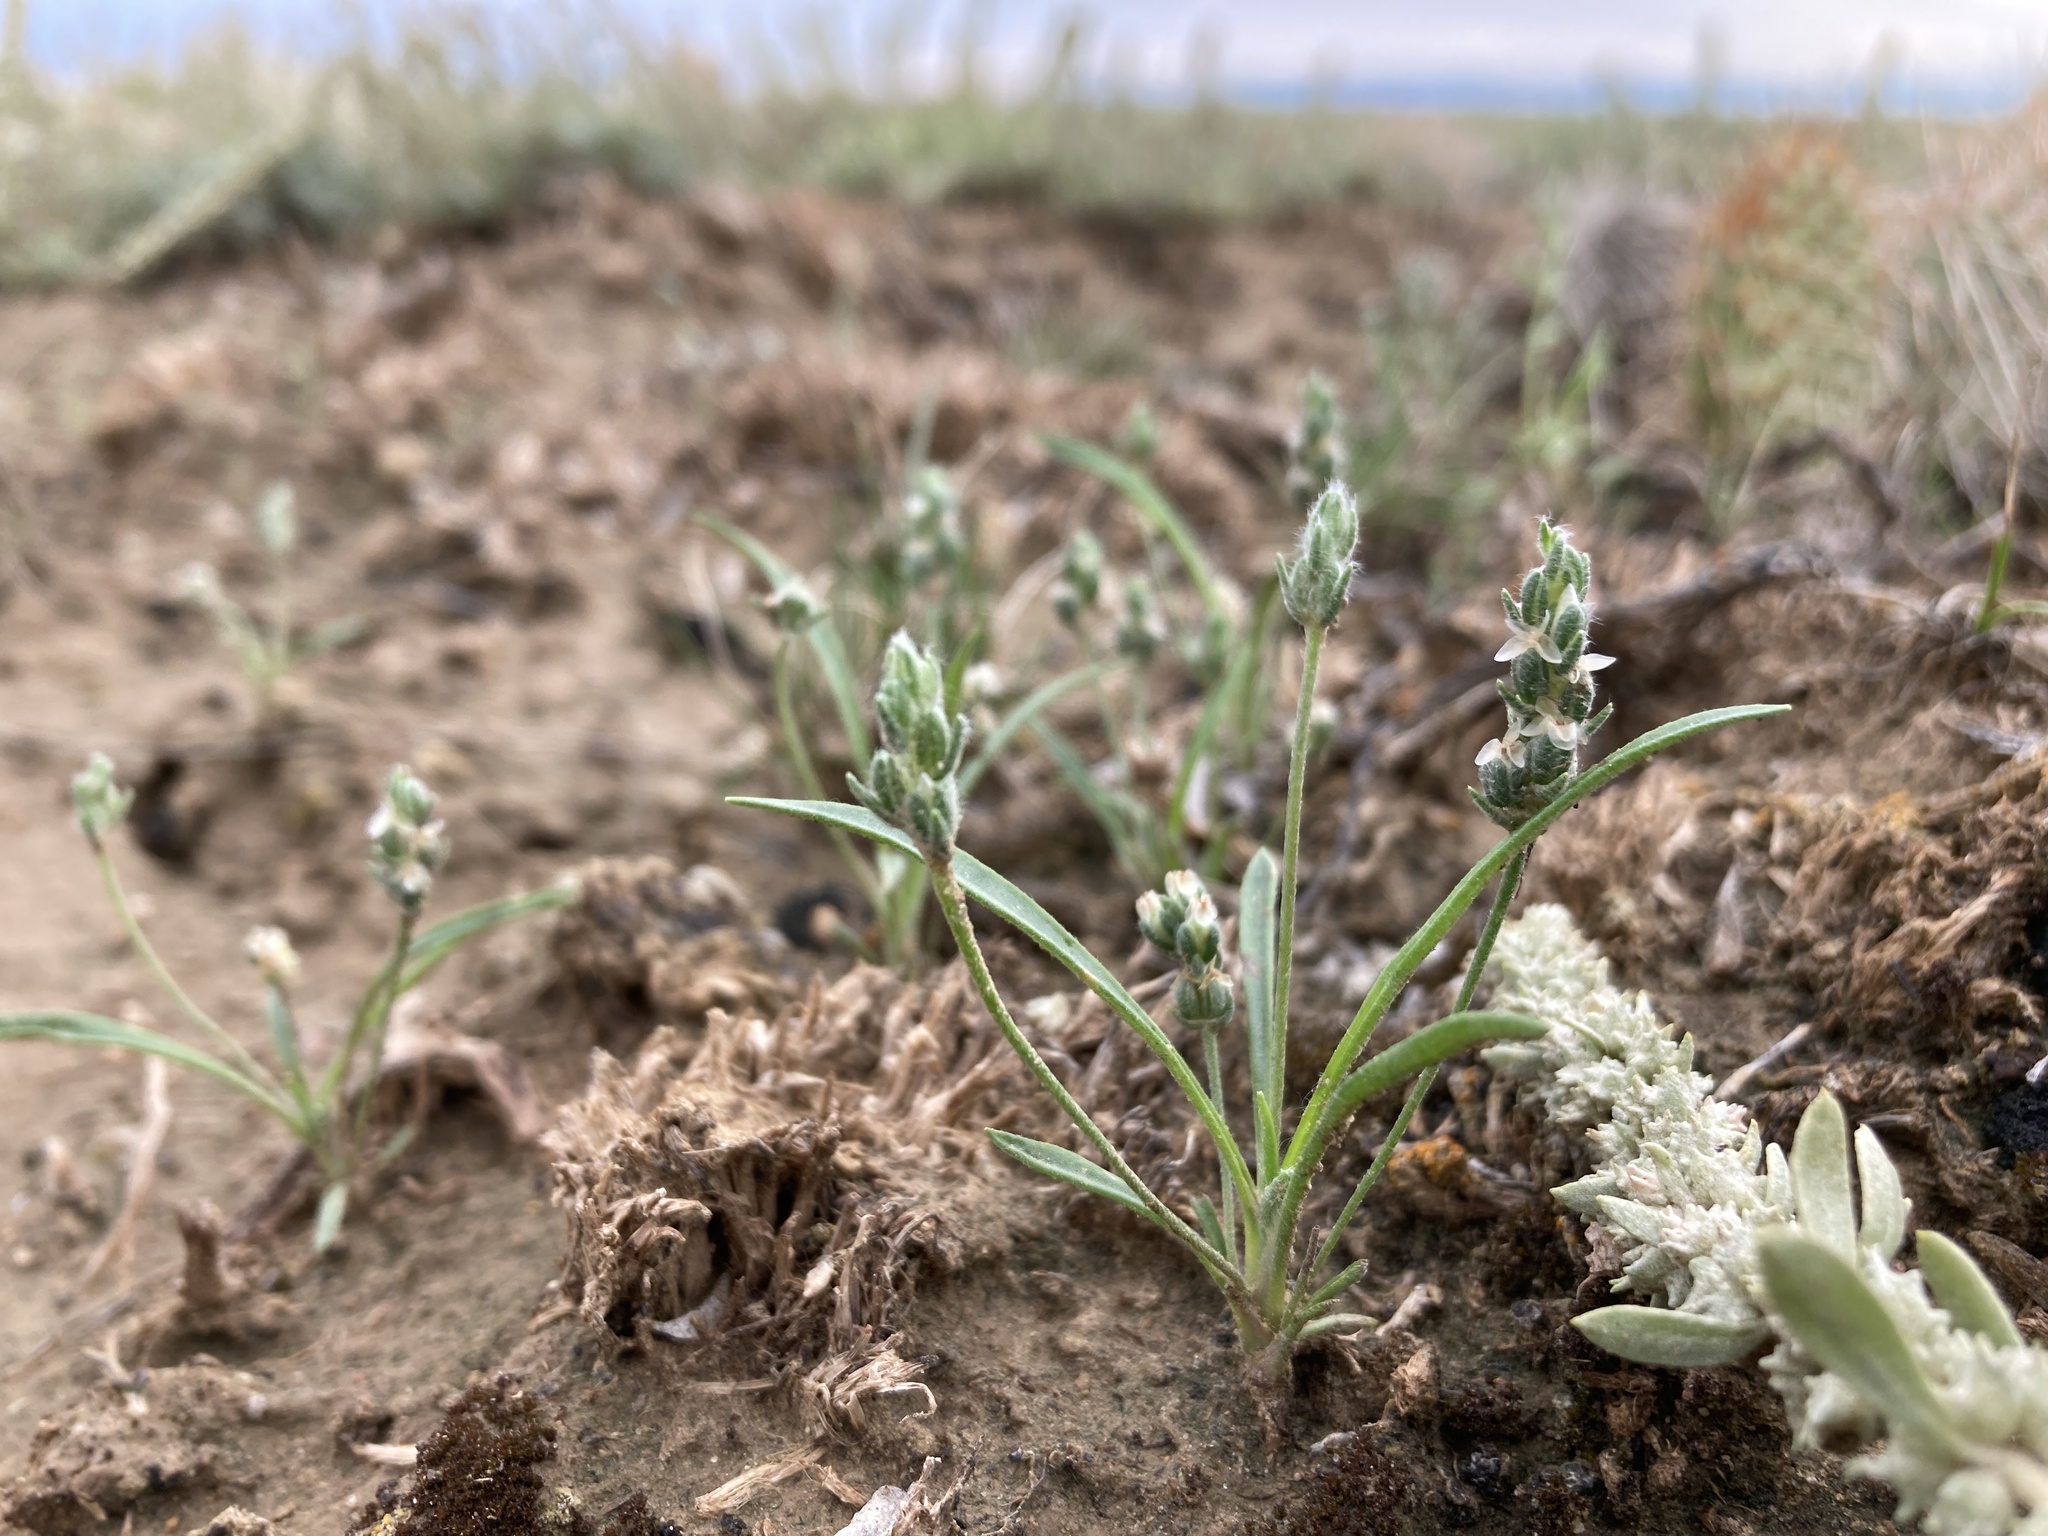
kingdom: Plantae
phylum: Tracheophyta
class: Magnoliopsida
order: Lamiales
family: Plantaginaceae
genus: Plantago
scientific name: Plantago patagonica
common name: Patagonia indian-wheat
